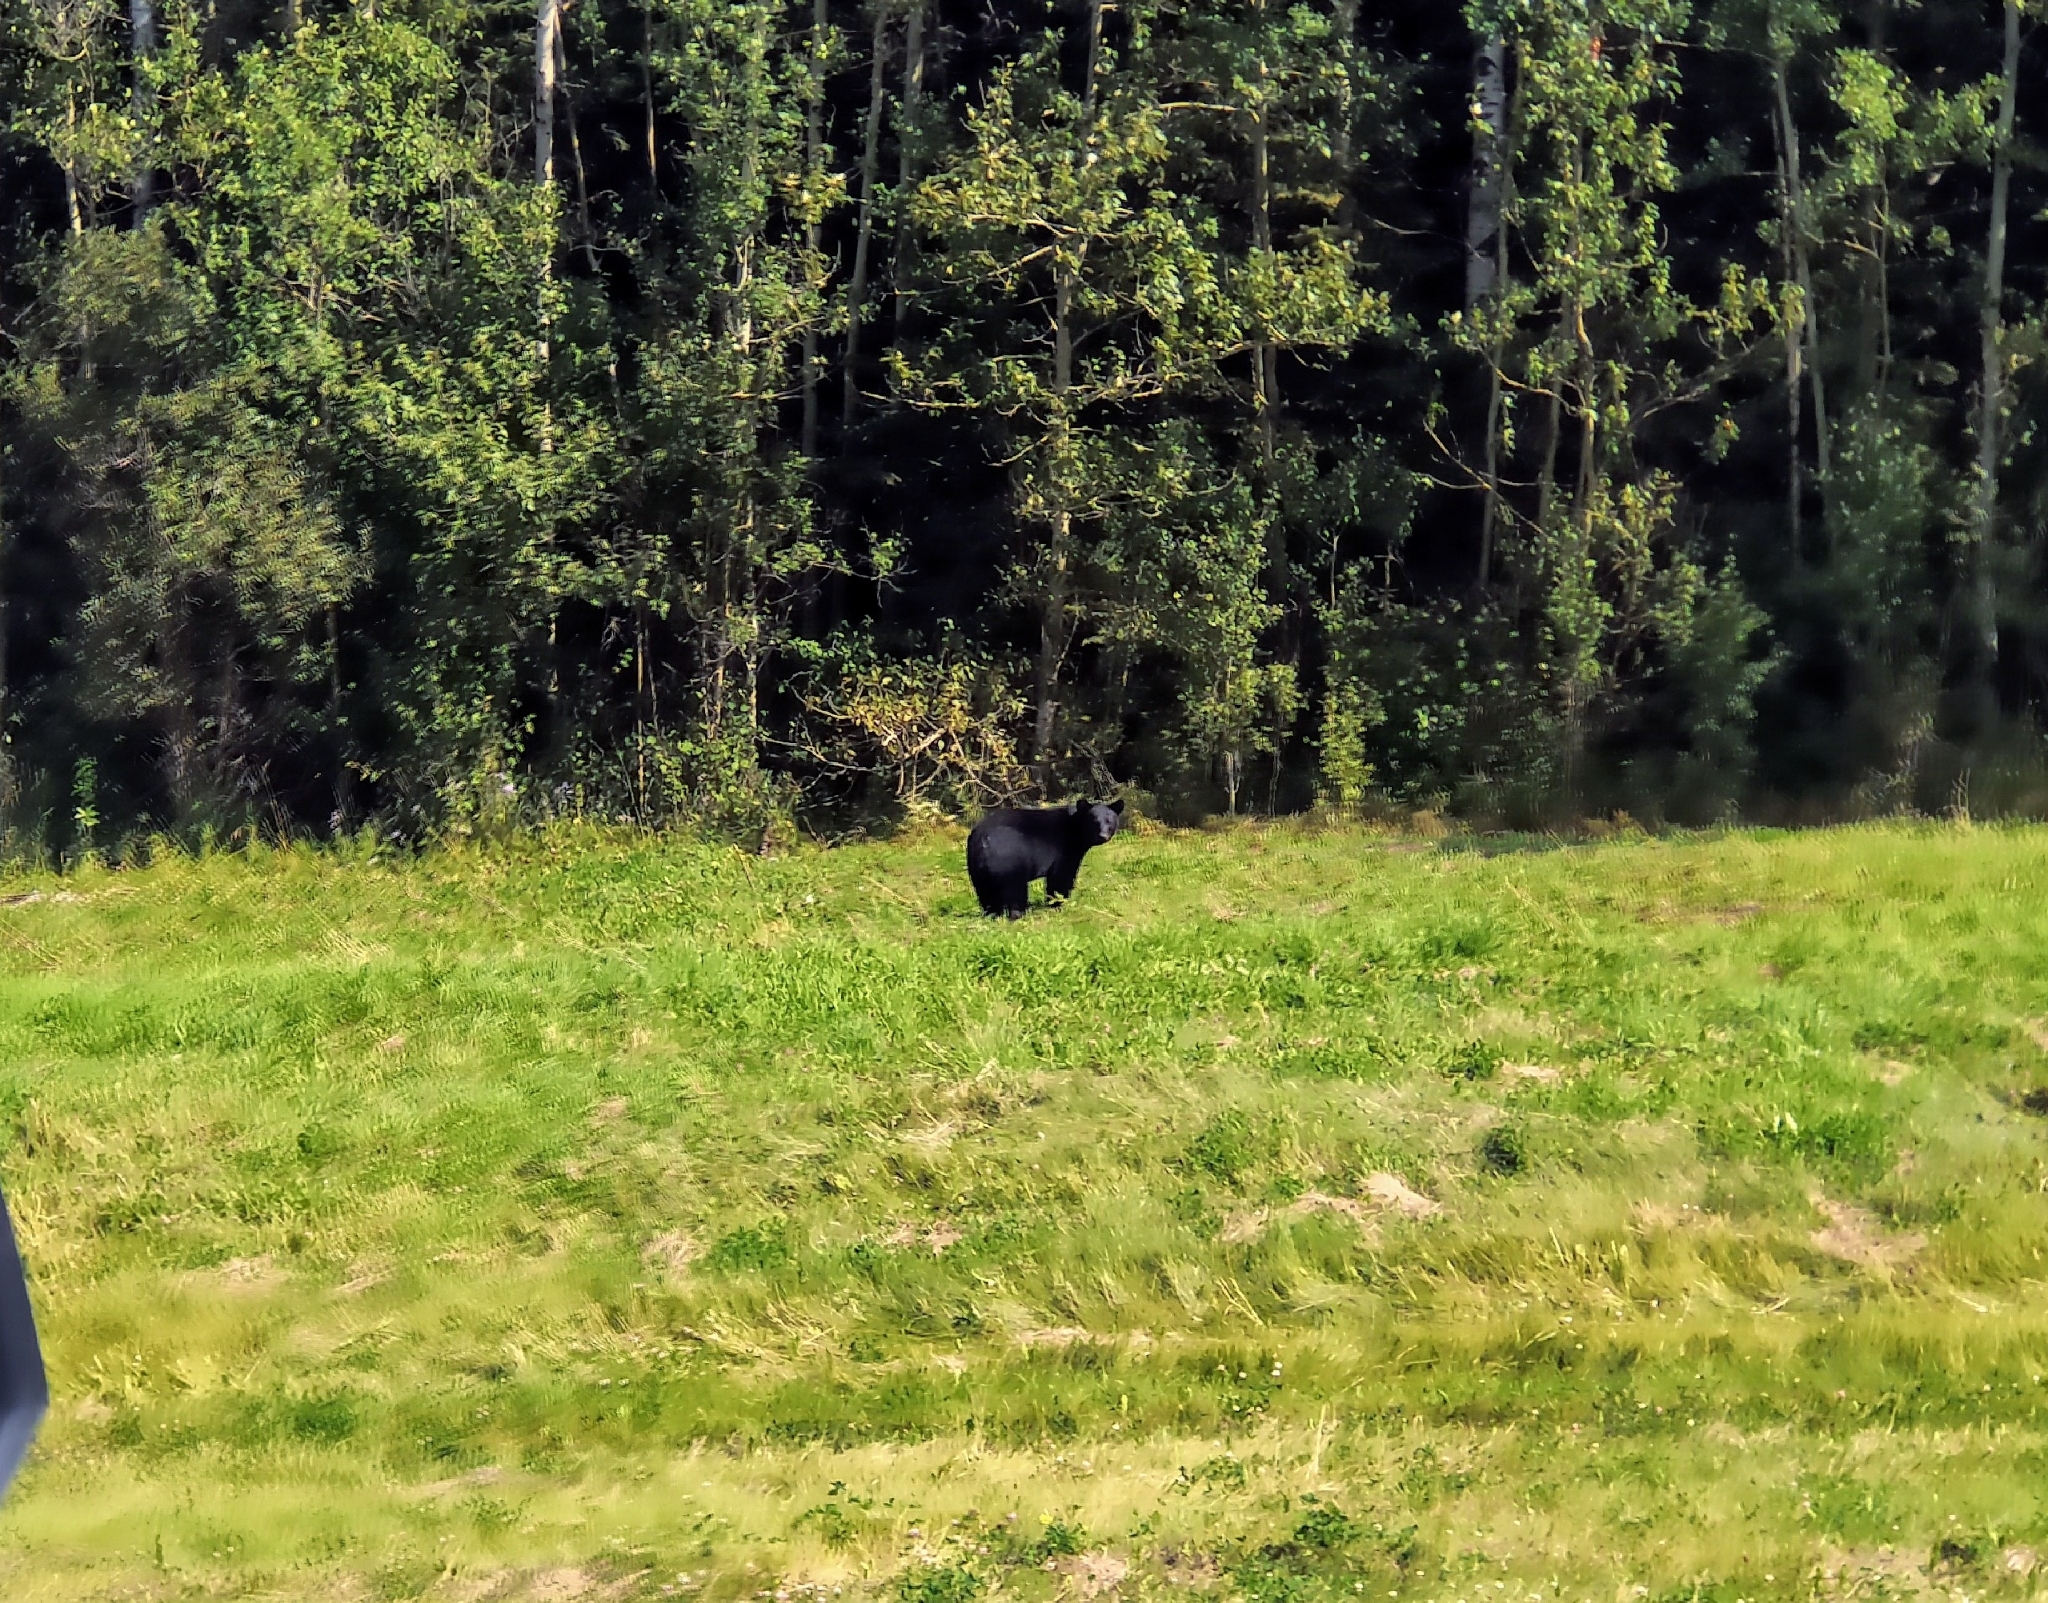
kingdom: Animalia
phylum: Chordata
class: Mammalia
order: Carnivora
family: Ursidae
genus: Ursus
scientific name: Ursus americanus
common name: American black bear
